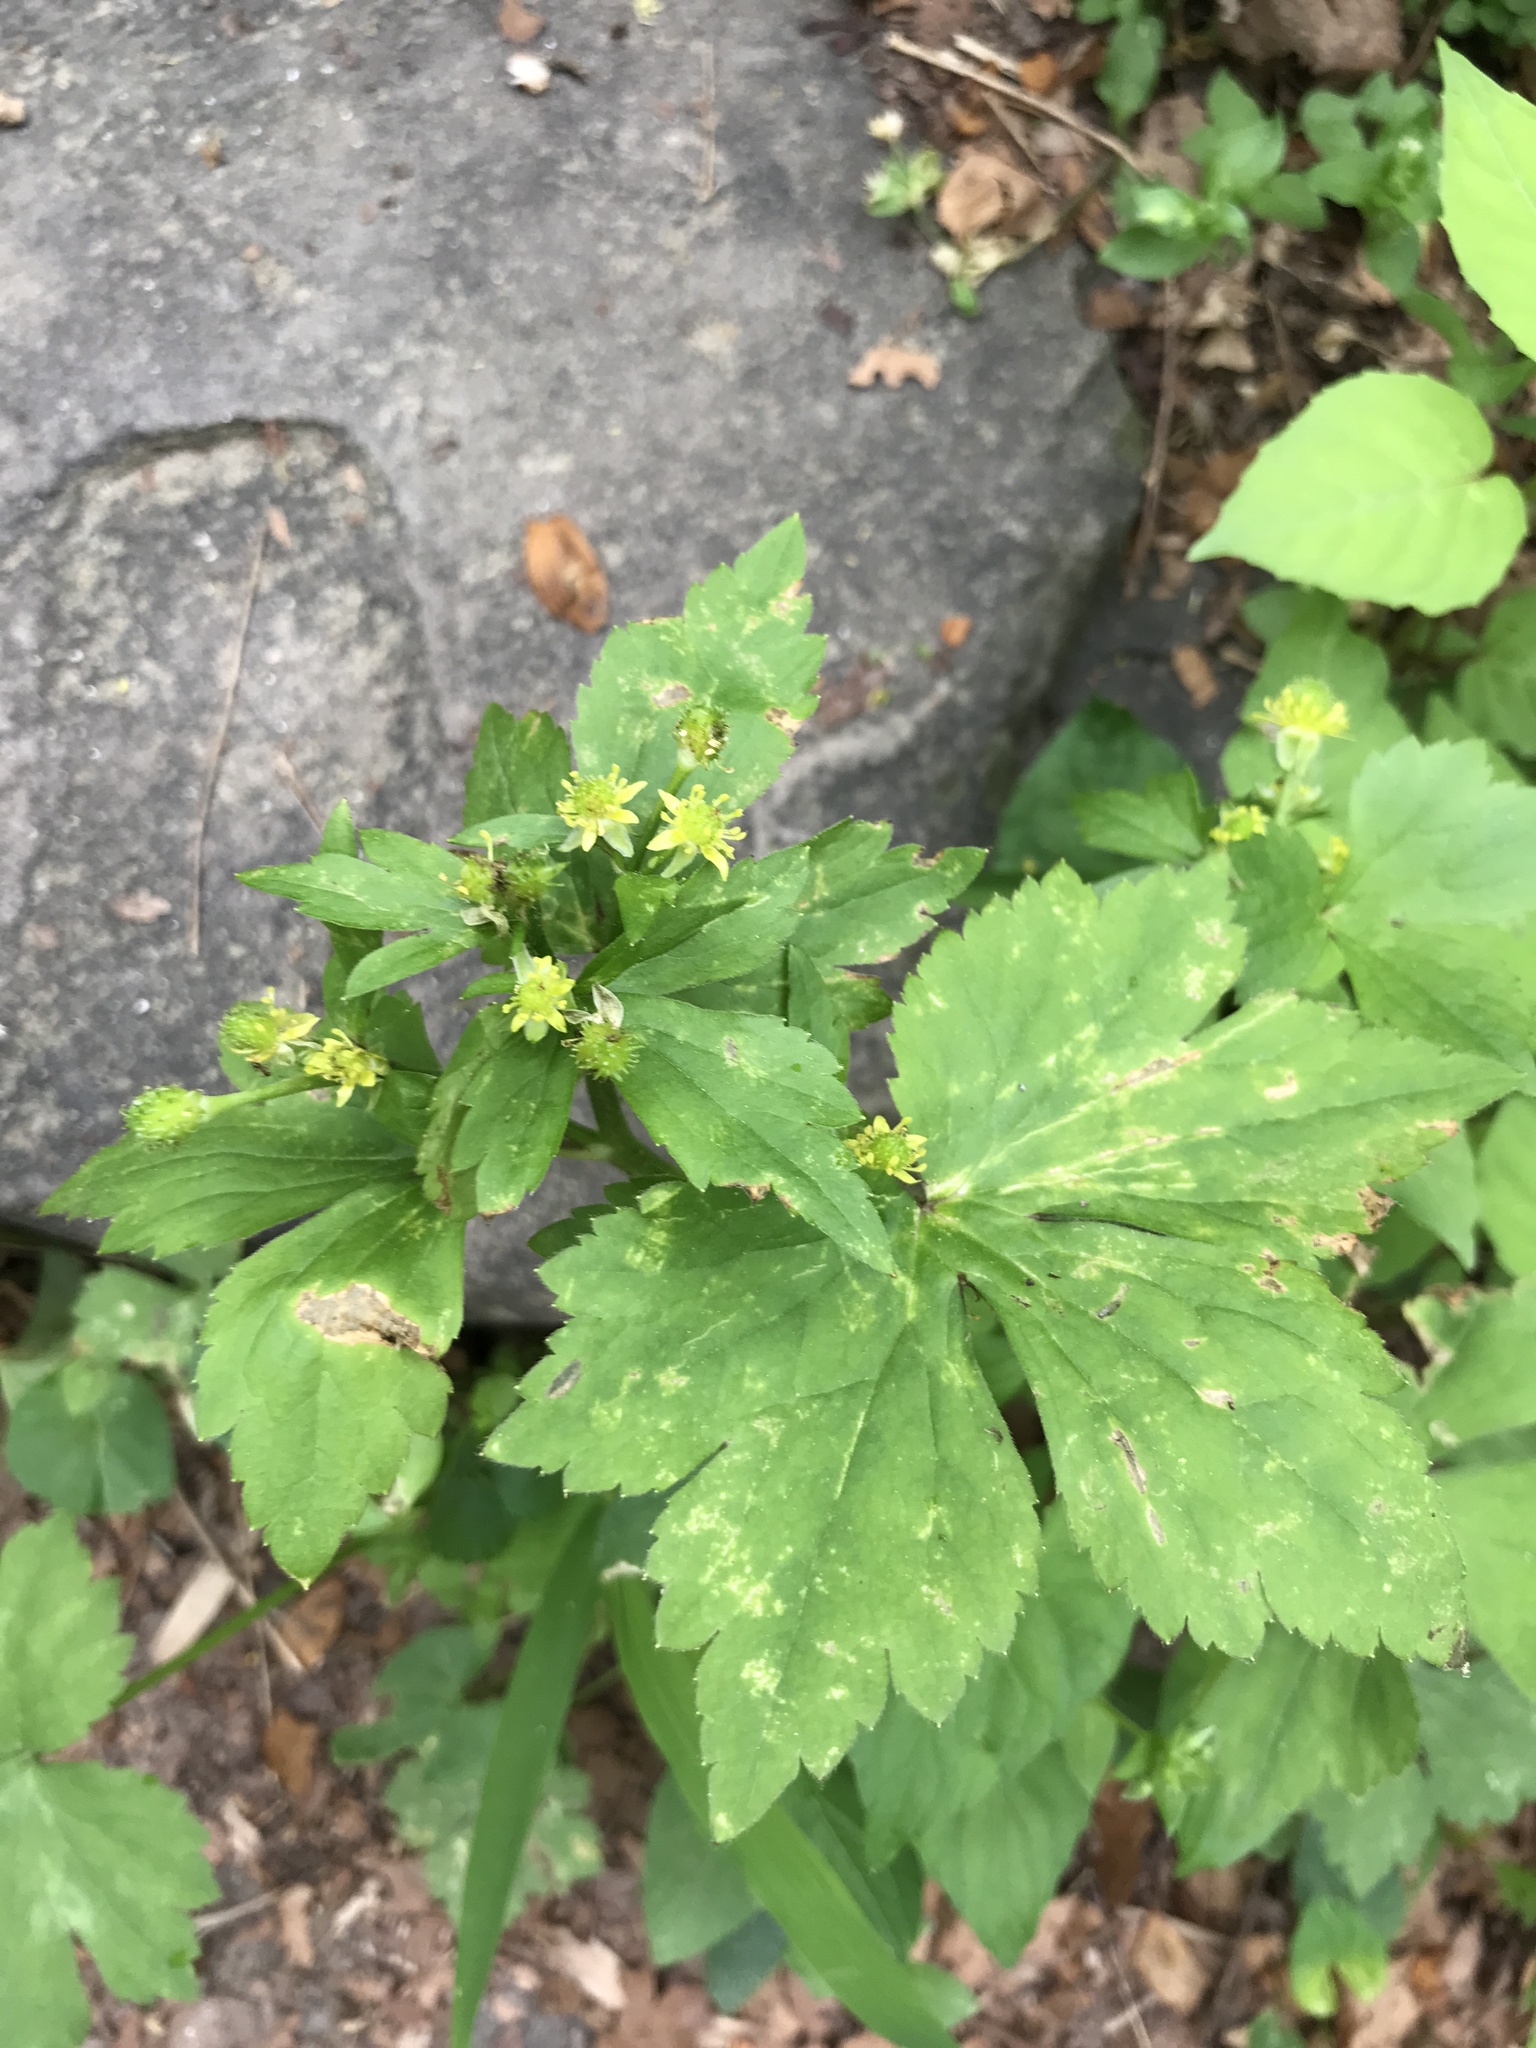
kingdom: Plantae
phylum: Tracheophyta
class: Magnoliopsida
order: Ranunculales
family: Ranunculaceae
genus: Ranunculus
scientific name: Ranunculus recurvatus
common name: Blisterwort
